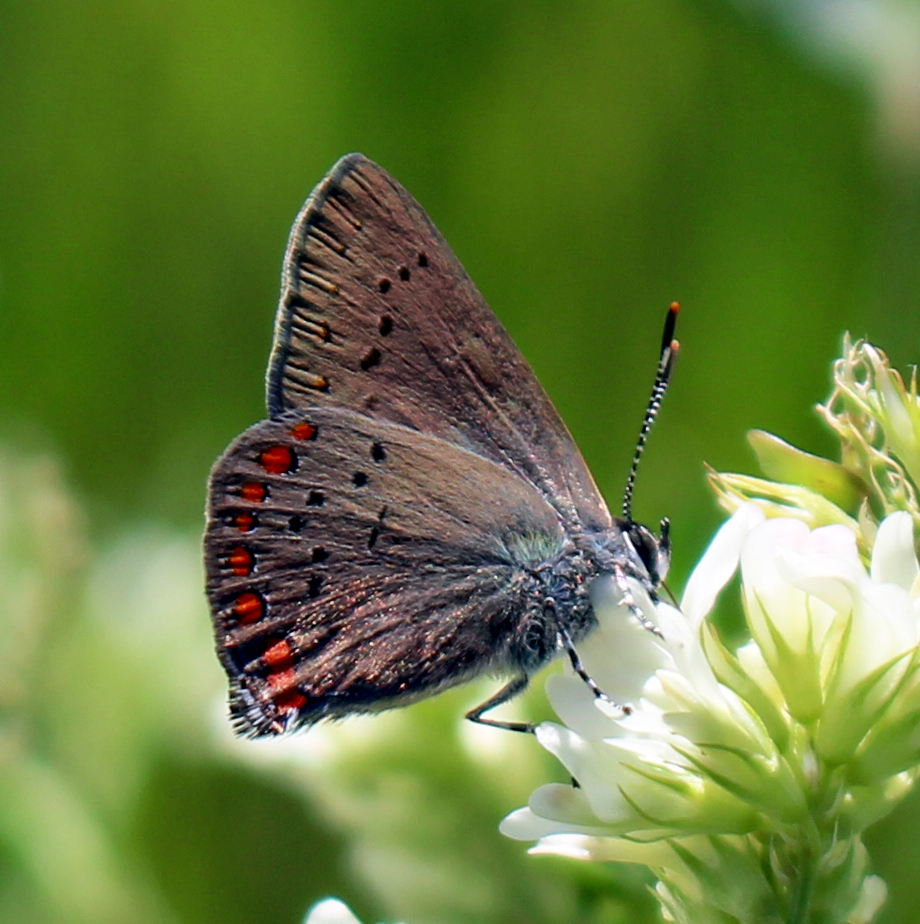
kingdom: Animalia
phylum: Arthropoda
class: Insecta
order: Lepidoptera
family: Lycaenidae
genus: Harkenclenus
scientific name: Harkenclenus titus
